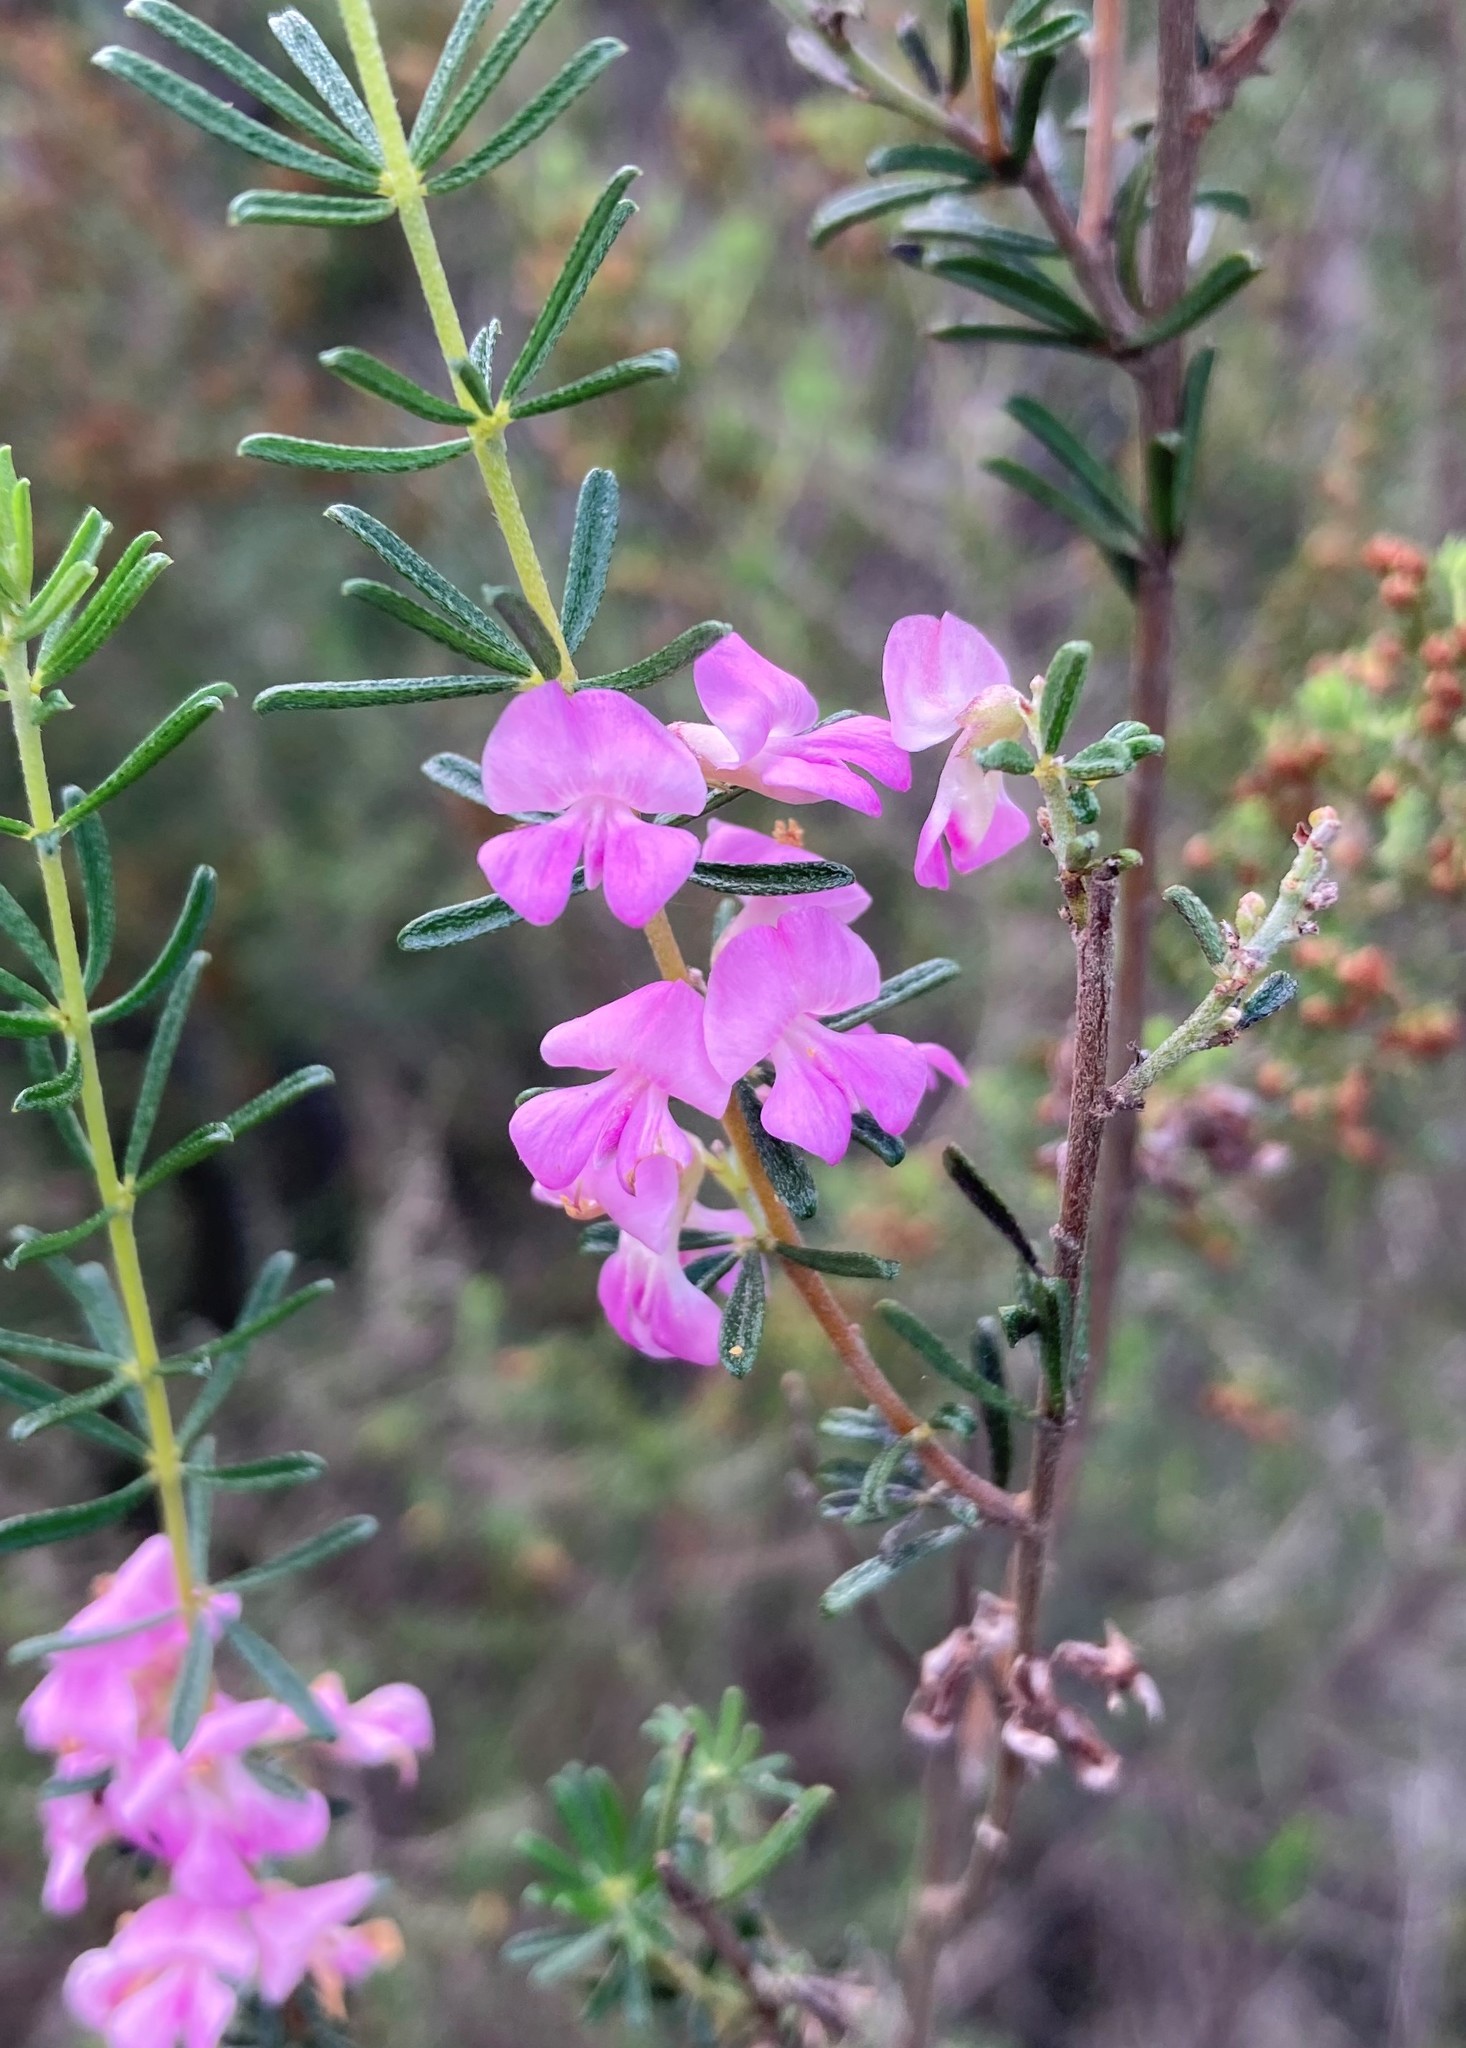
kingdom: Plantae
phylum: Tracheophyta
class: Magnoliopsida
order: Fabales
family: Fabaceae
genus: Indigofera
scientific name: Indigofera pappei
